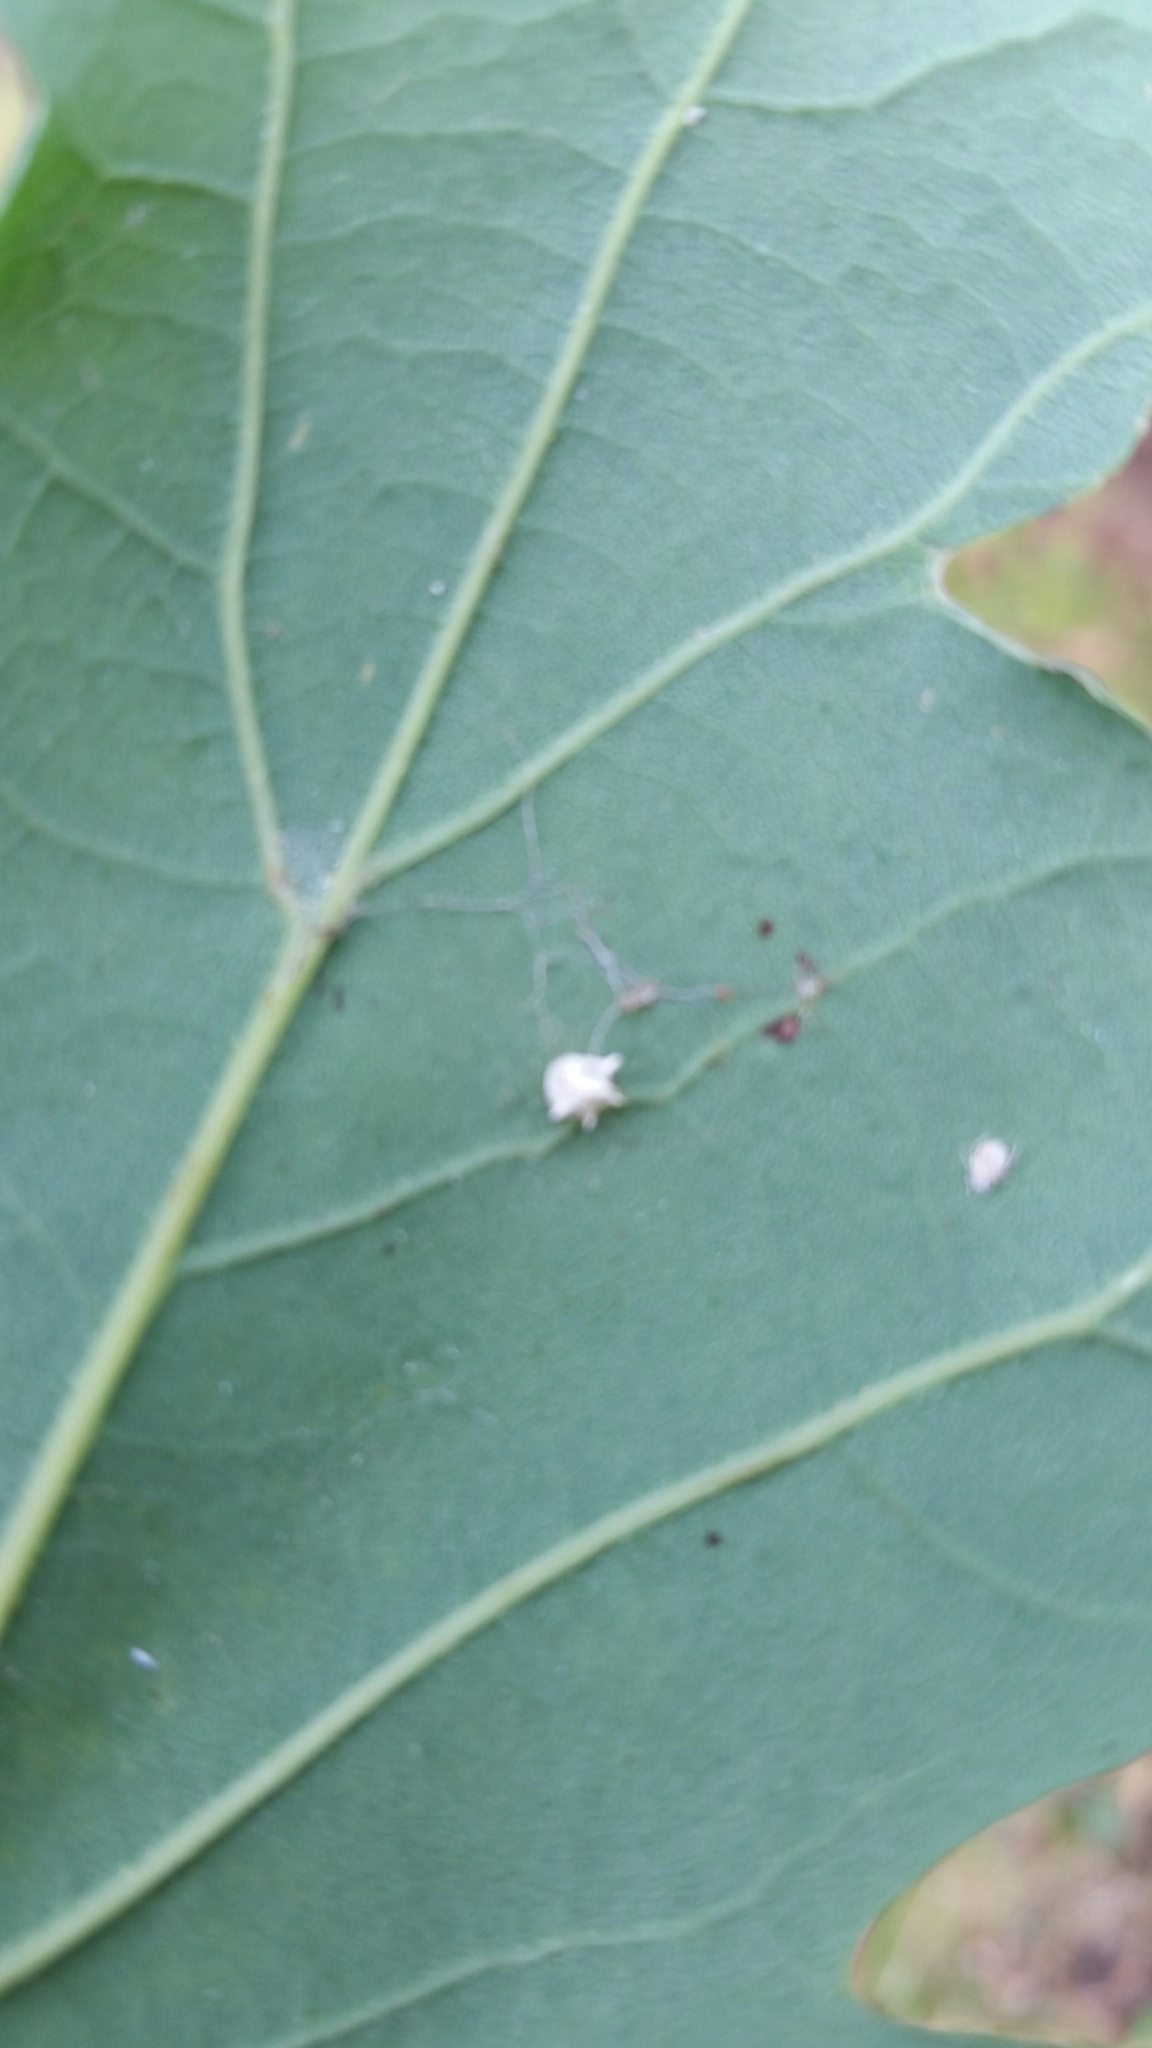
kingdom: Animalia
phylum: Arthropoda
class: Arachnida
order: Araneae
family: Theridiidae
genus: Paidiscura
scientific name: Paidiscura pallens
